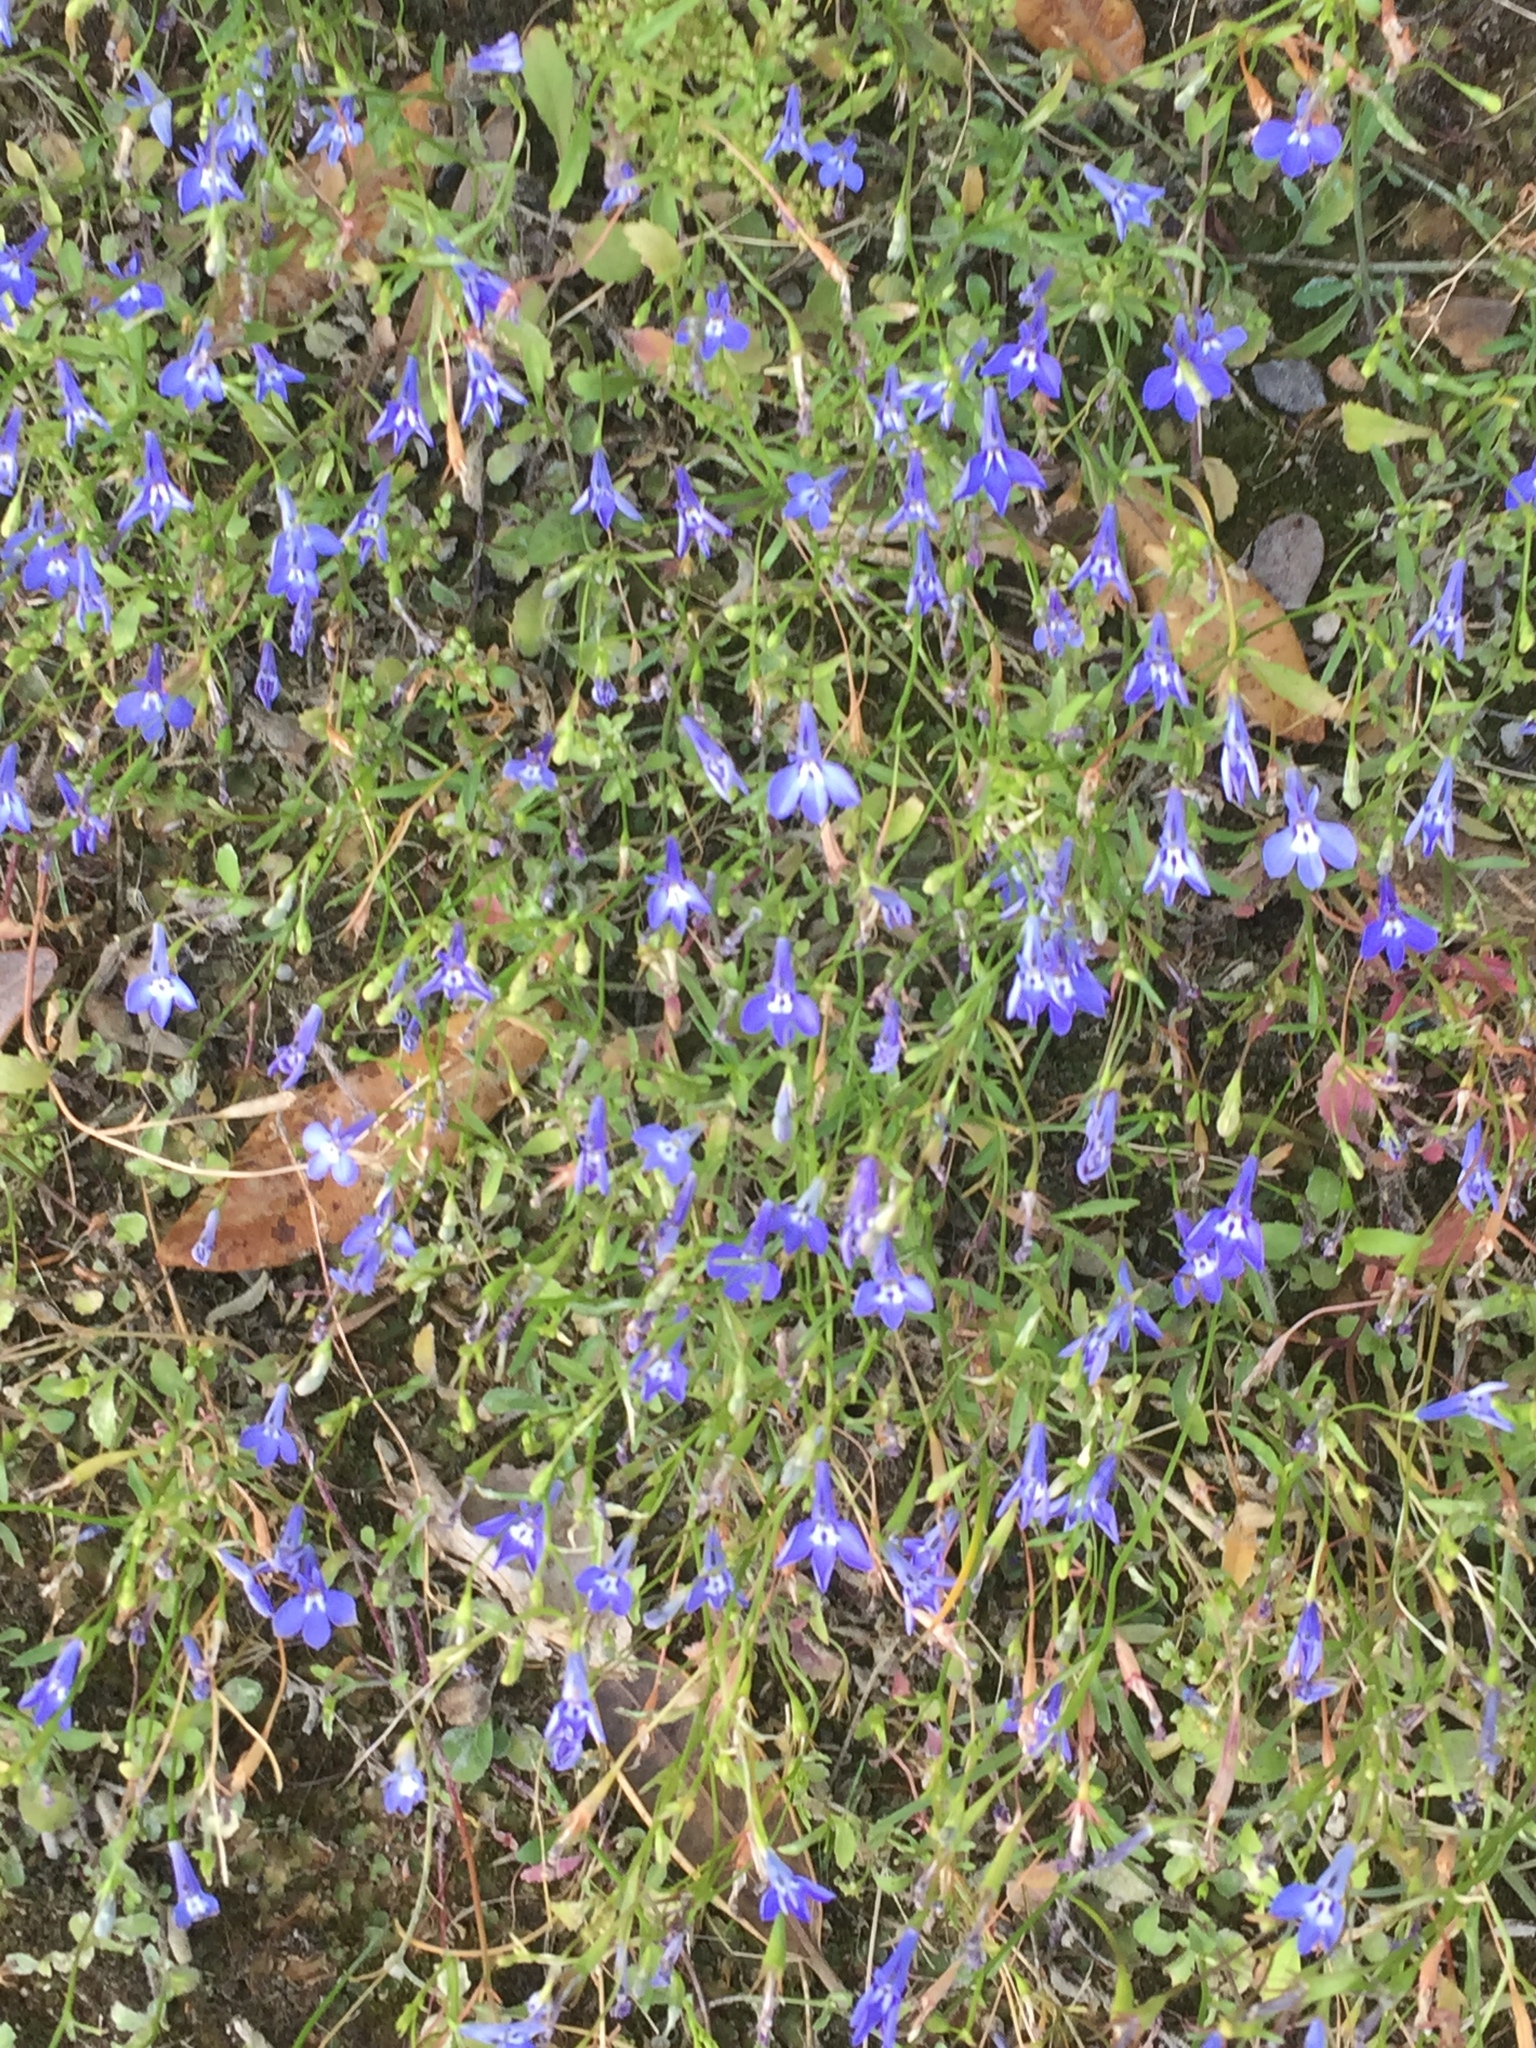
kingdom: Plantae
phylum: Tracheophyta
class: Magnoliopsida
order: Asterales
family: Campanulaceae
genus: Lobelia
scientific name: Lobelia erinus
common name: Edging lobelia
